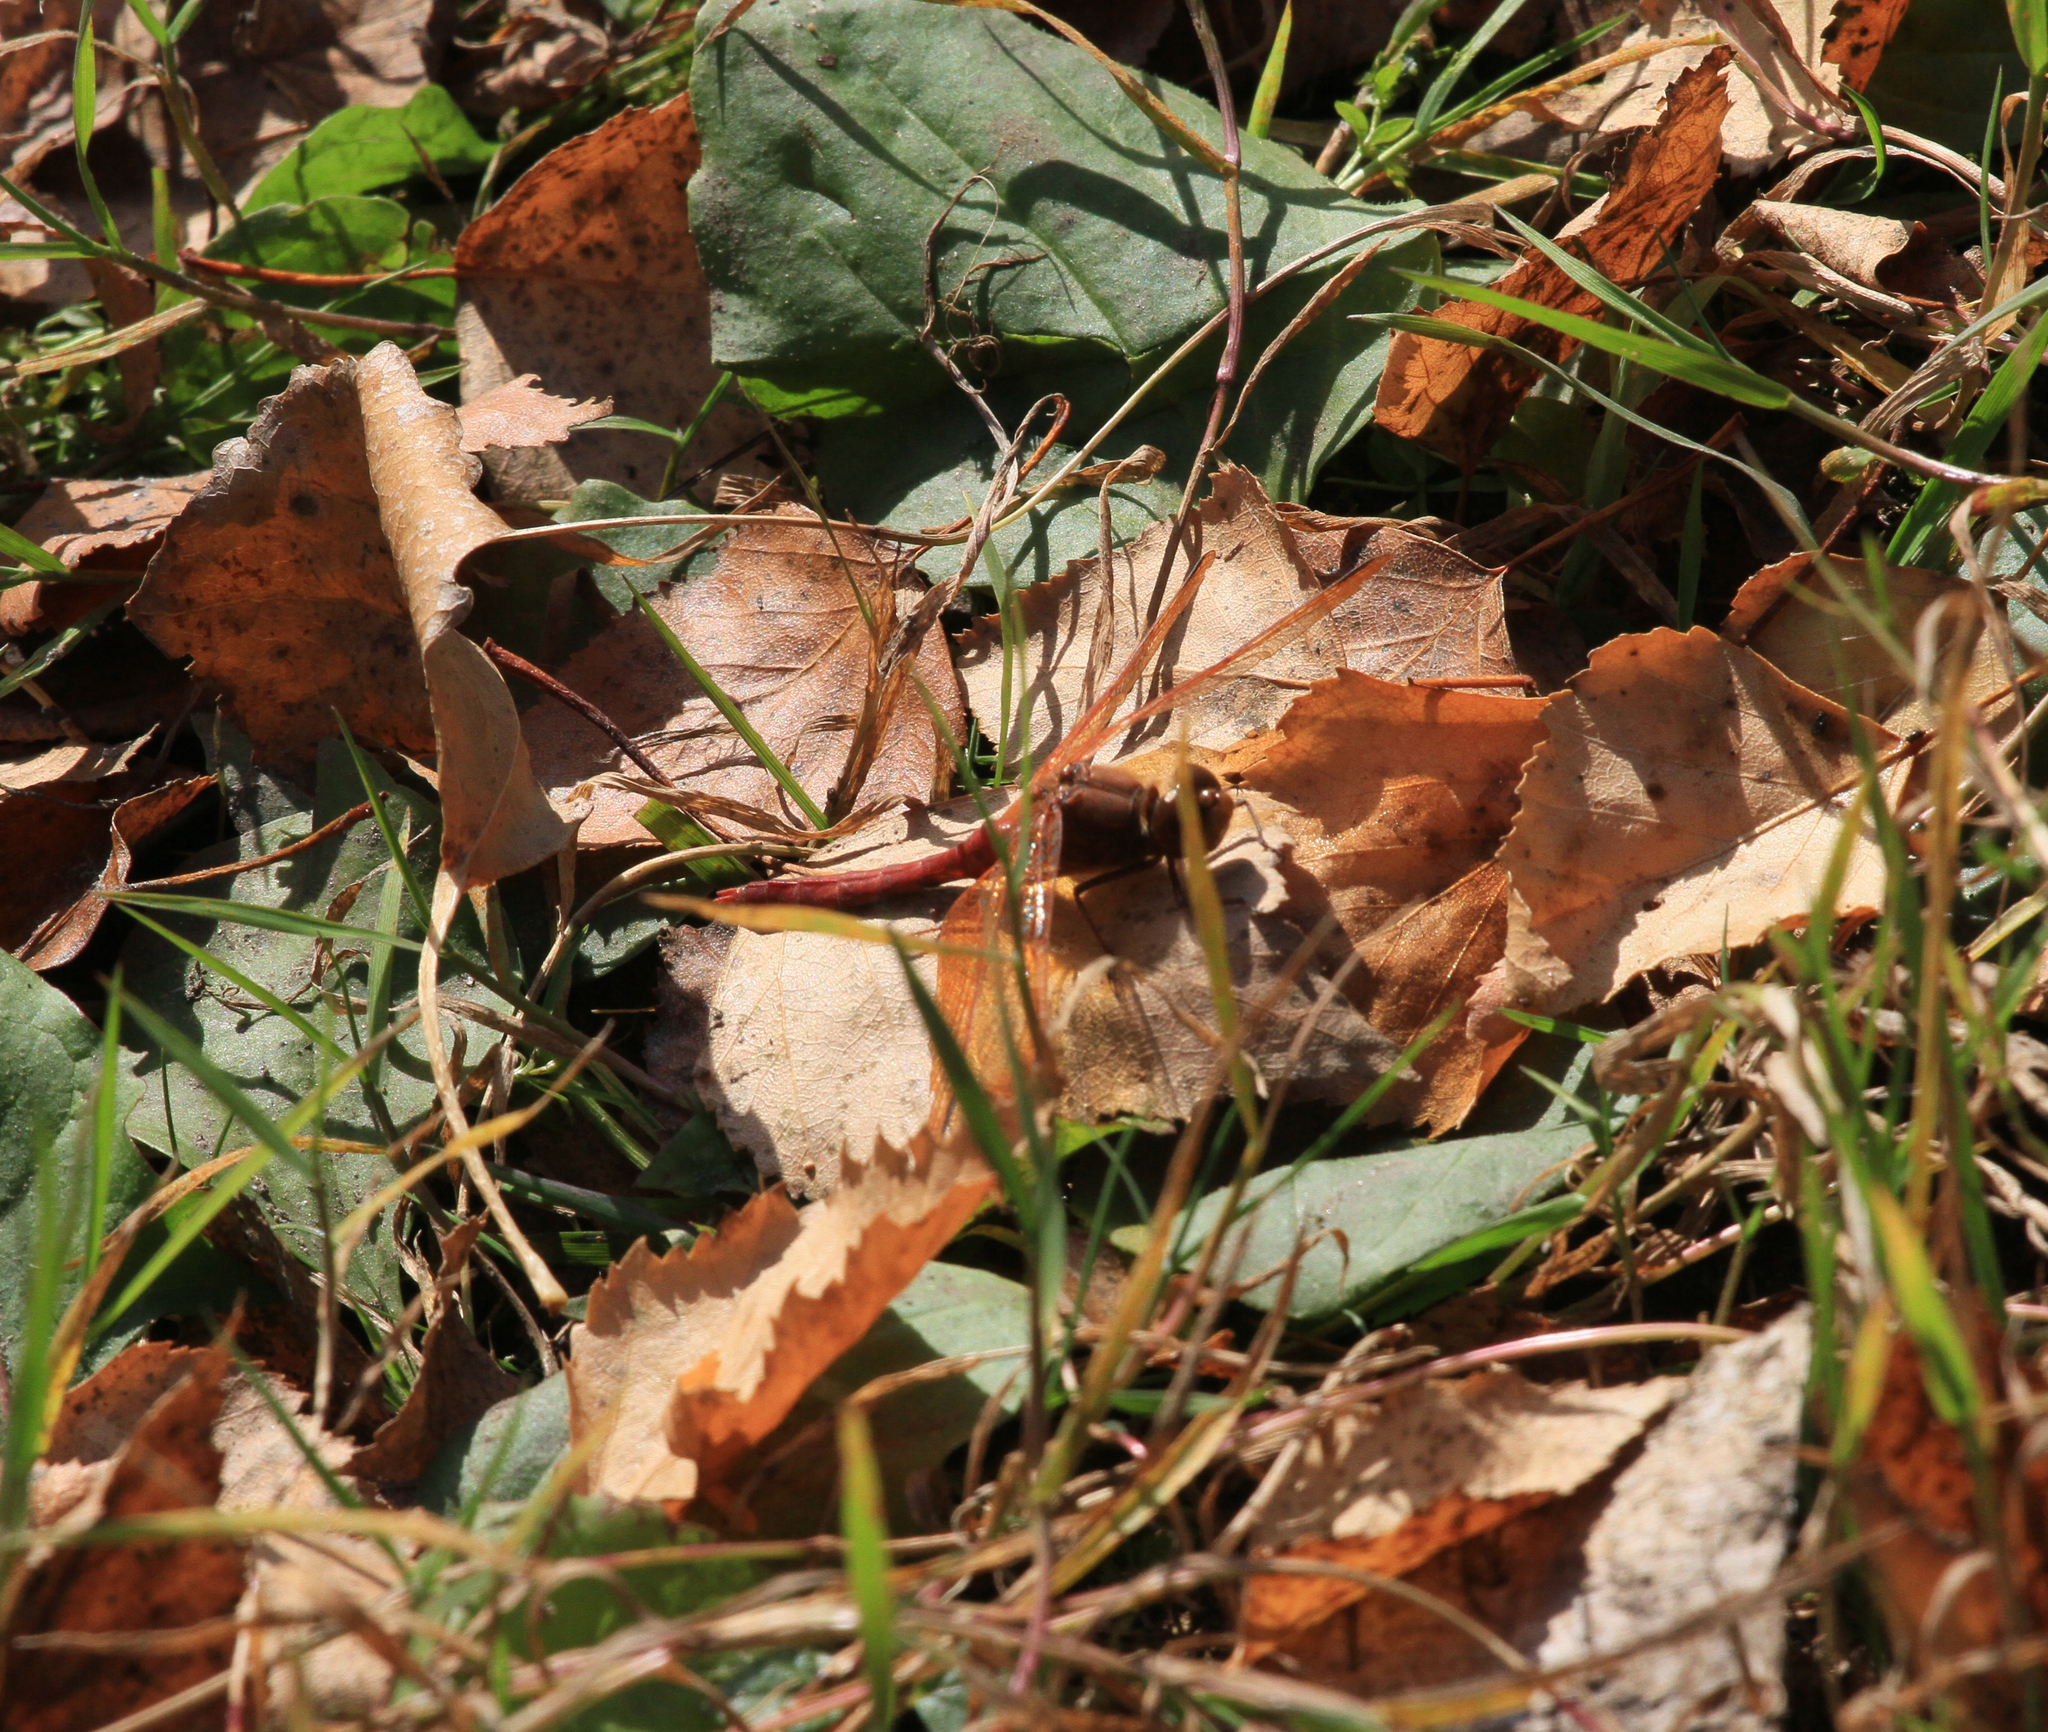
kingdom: Animalia
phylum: Arthropoda
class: Insecta
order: Odonata
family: Libellulidae
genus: Sympetrum
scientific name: Sympetrum croceolum
